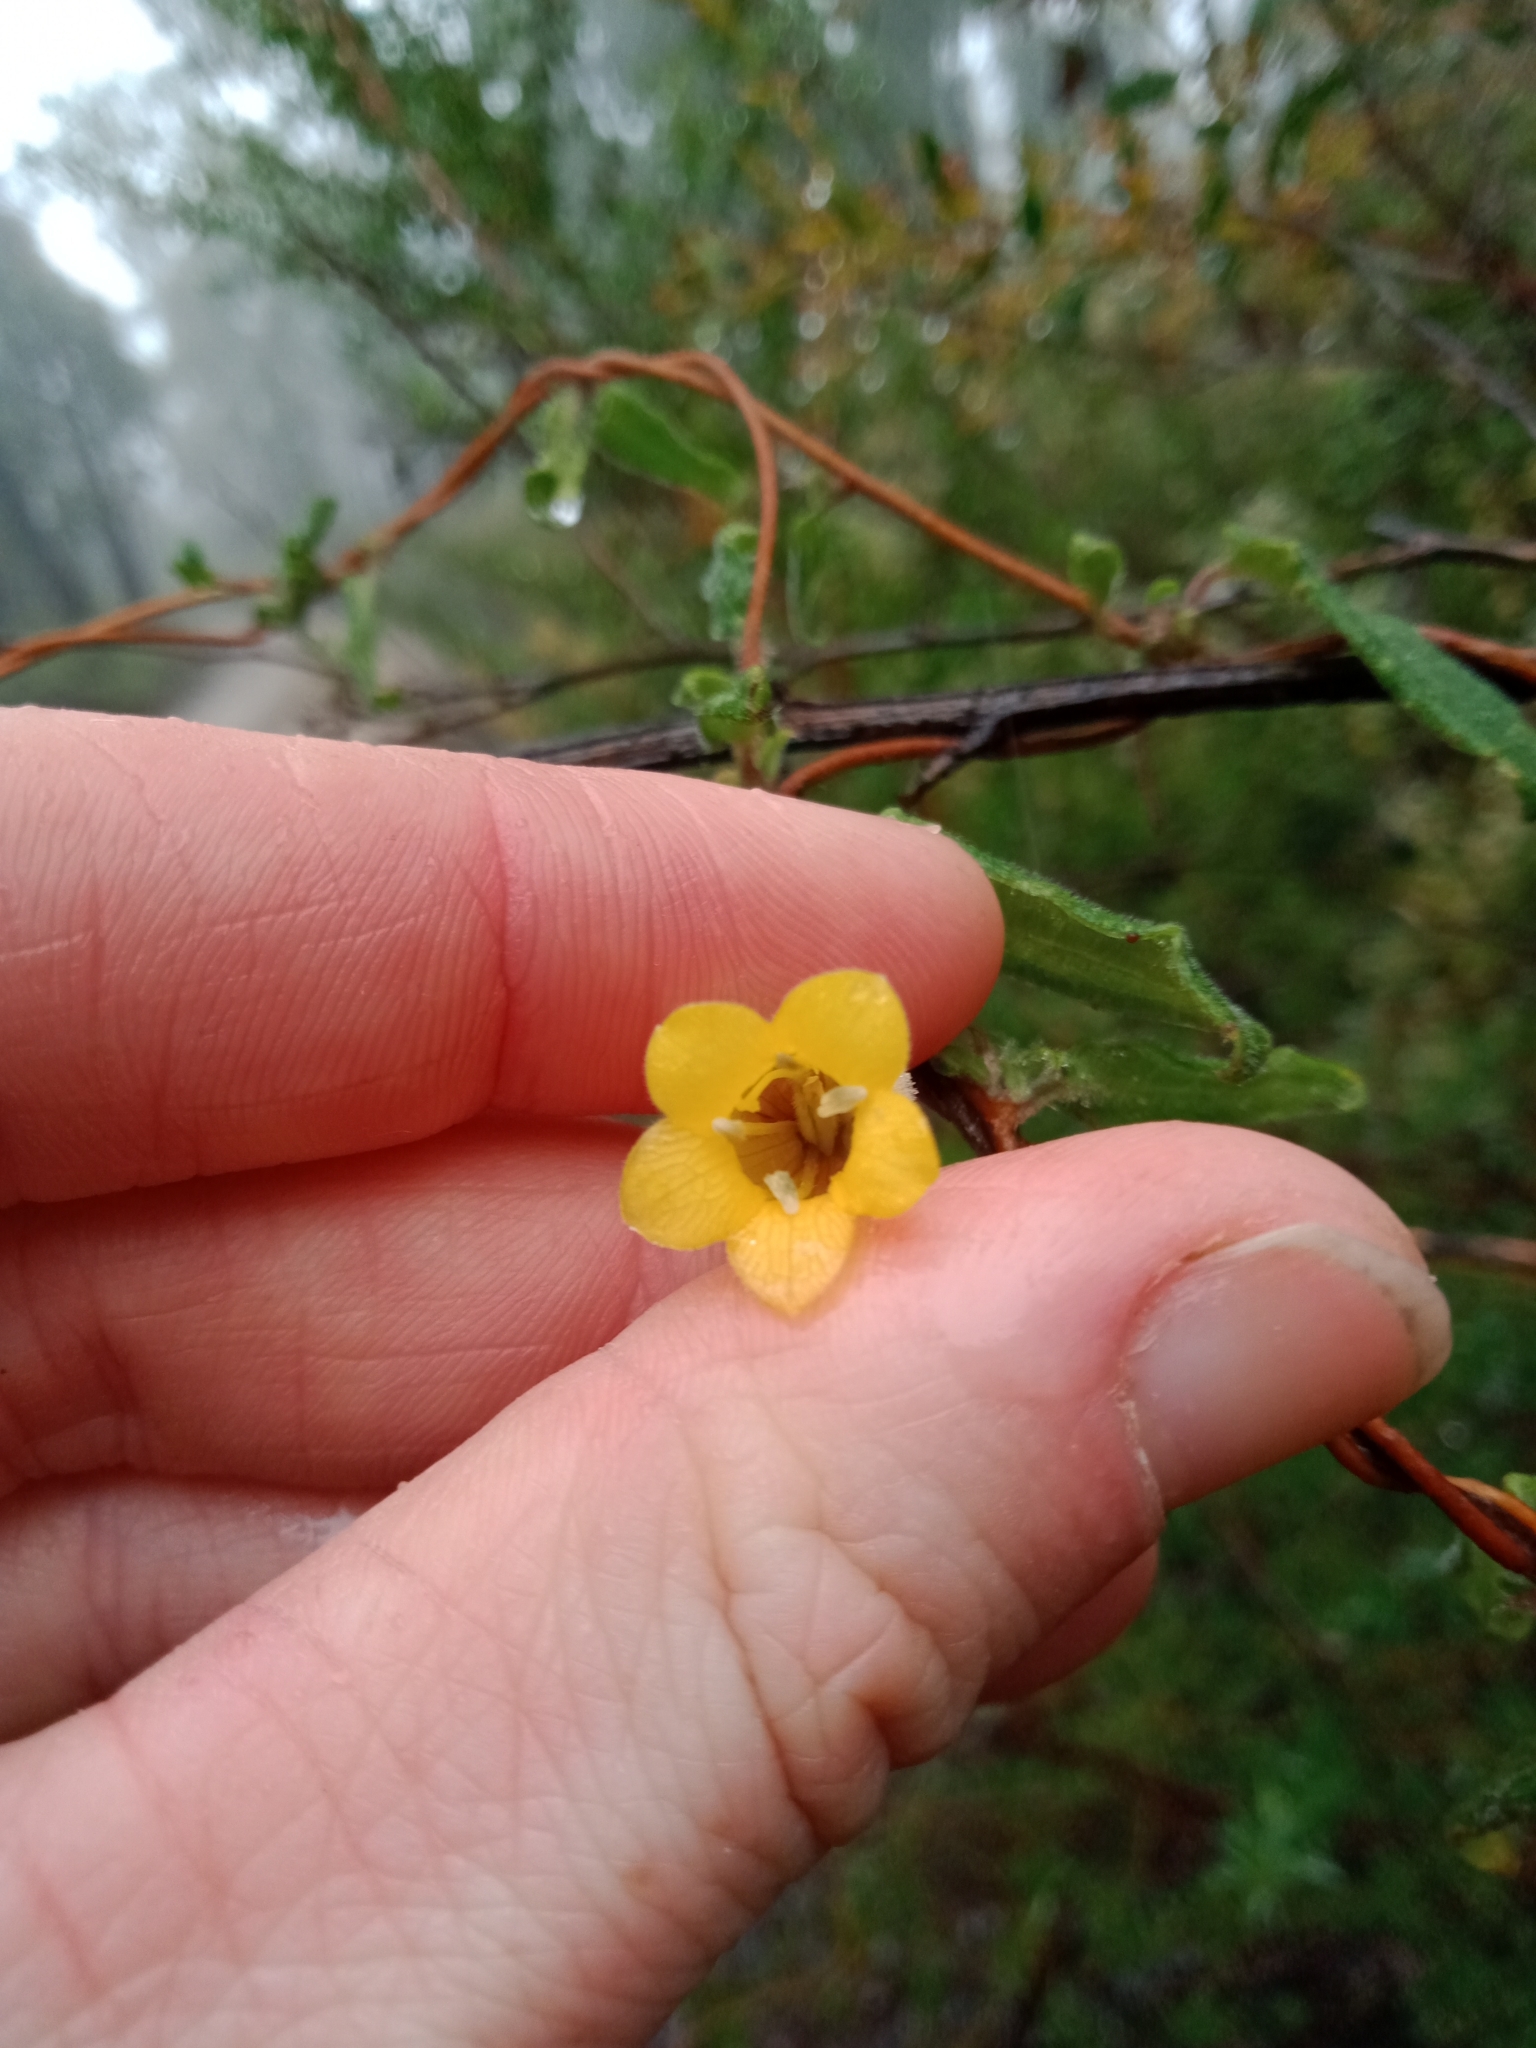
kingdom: Plantae
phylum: Tracheophyta
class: Magnoliopsida
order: Apiales
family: Pittosporaceae
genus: Marianthus
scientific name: Marianthus bignoniaceus
